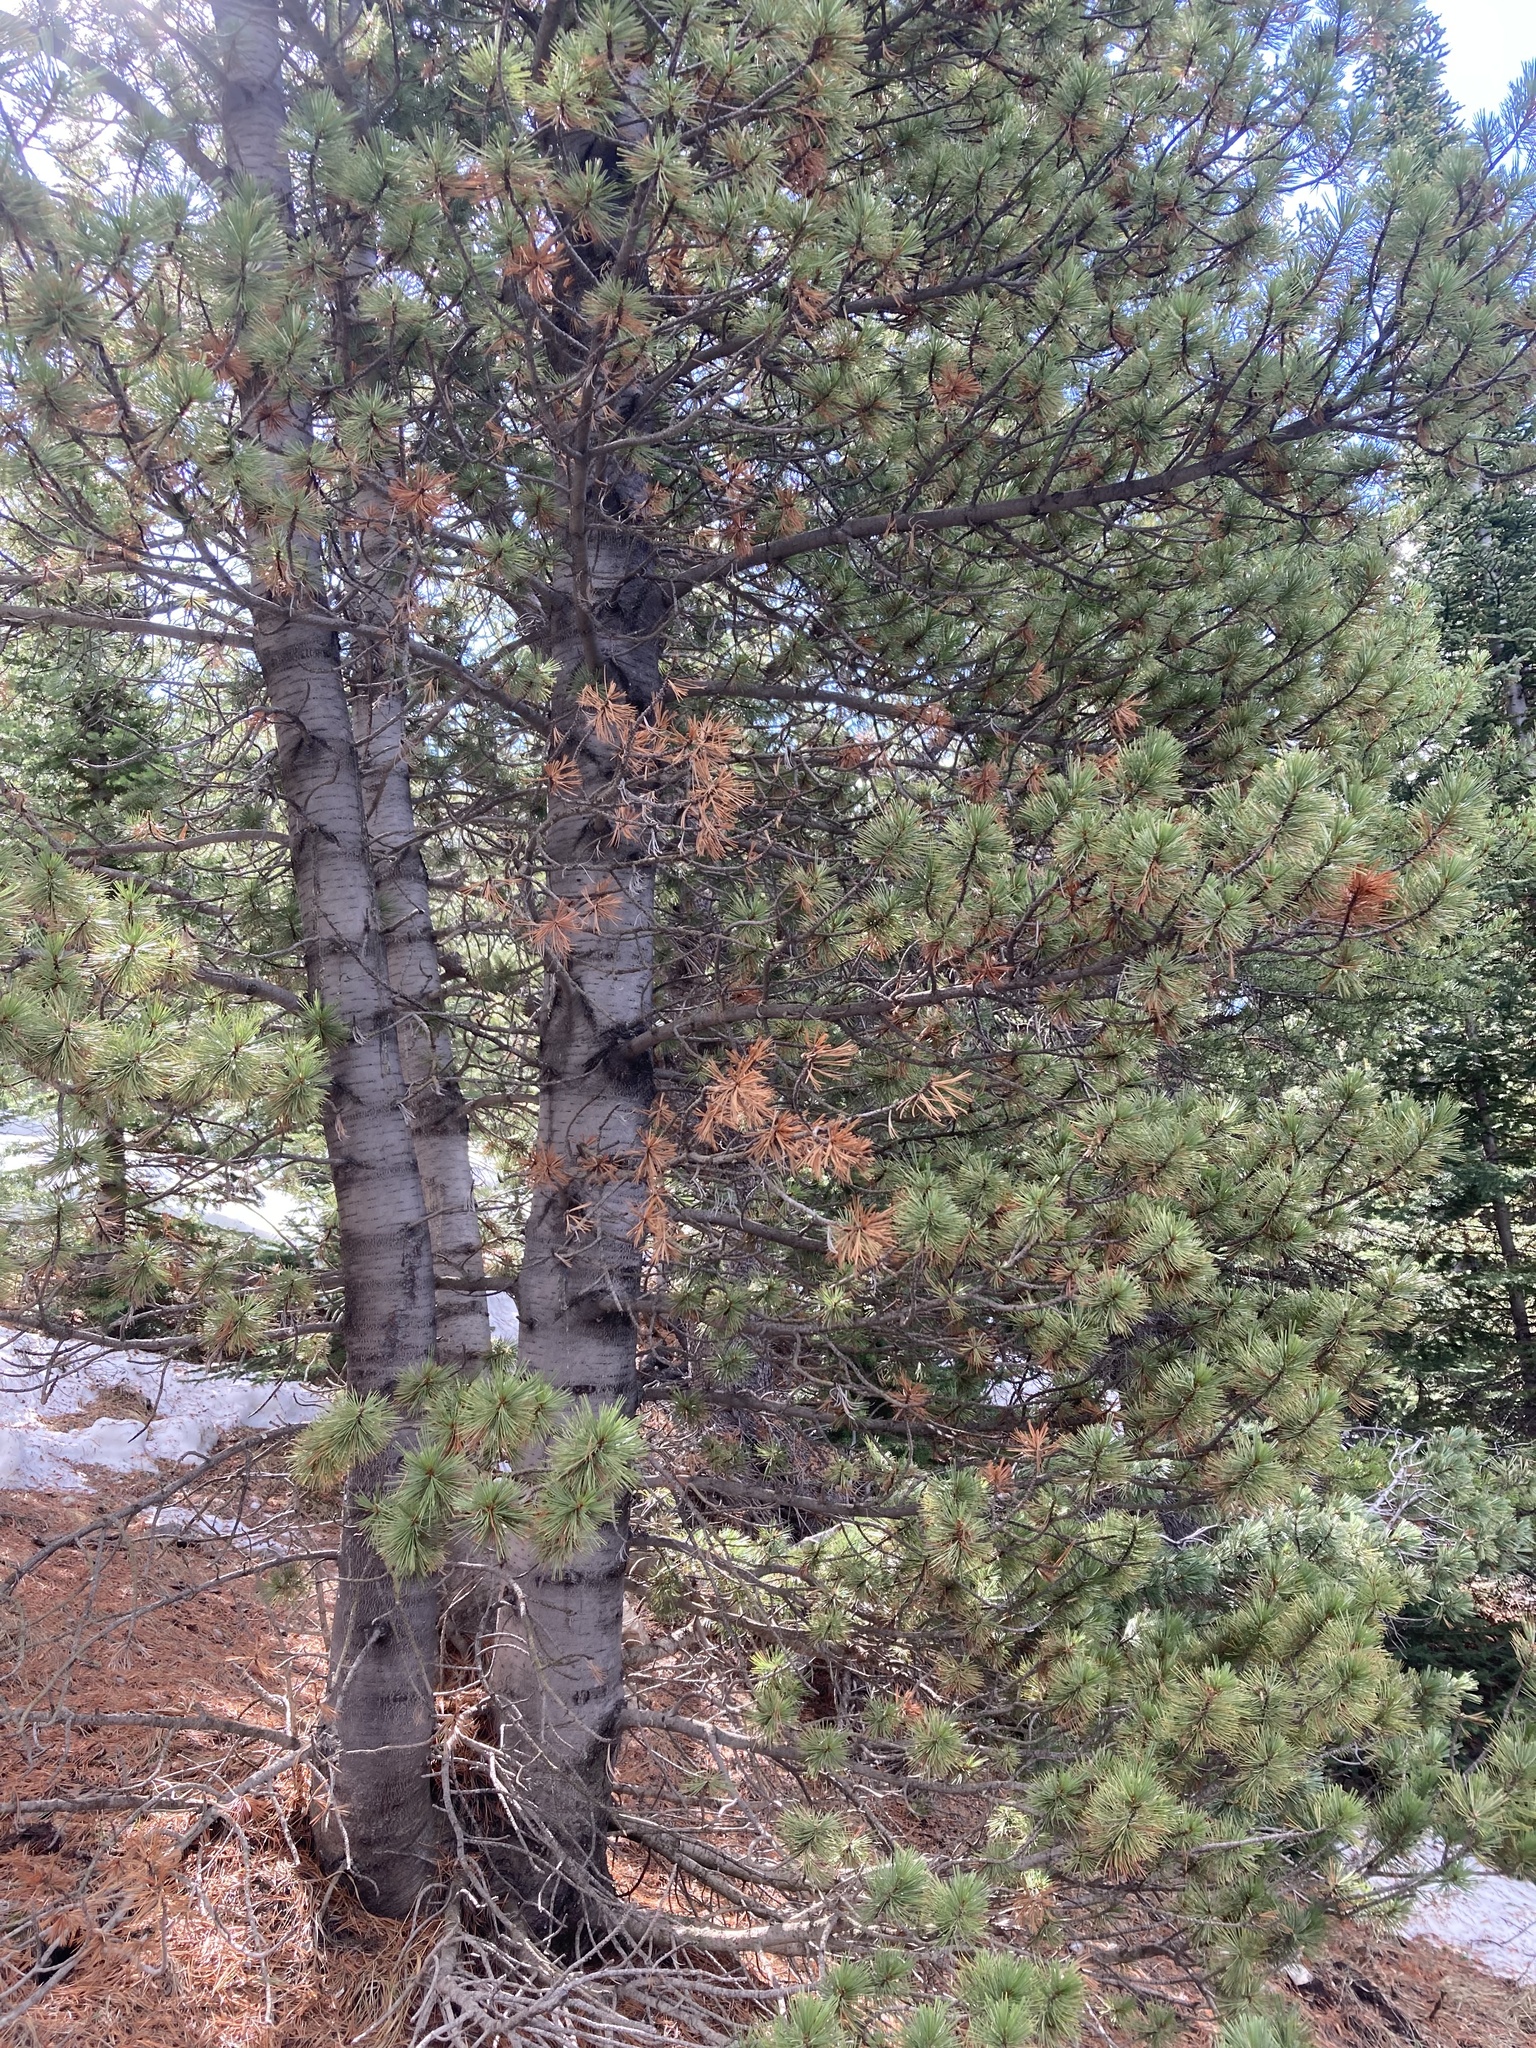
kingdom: Plantae
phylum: Tracheophyta
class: Pinopsida
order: Pinales
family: Pinaceae
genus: Pinus
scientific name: Pinus albicaulis
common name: Whitebark pine
